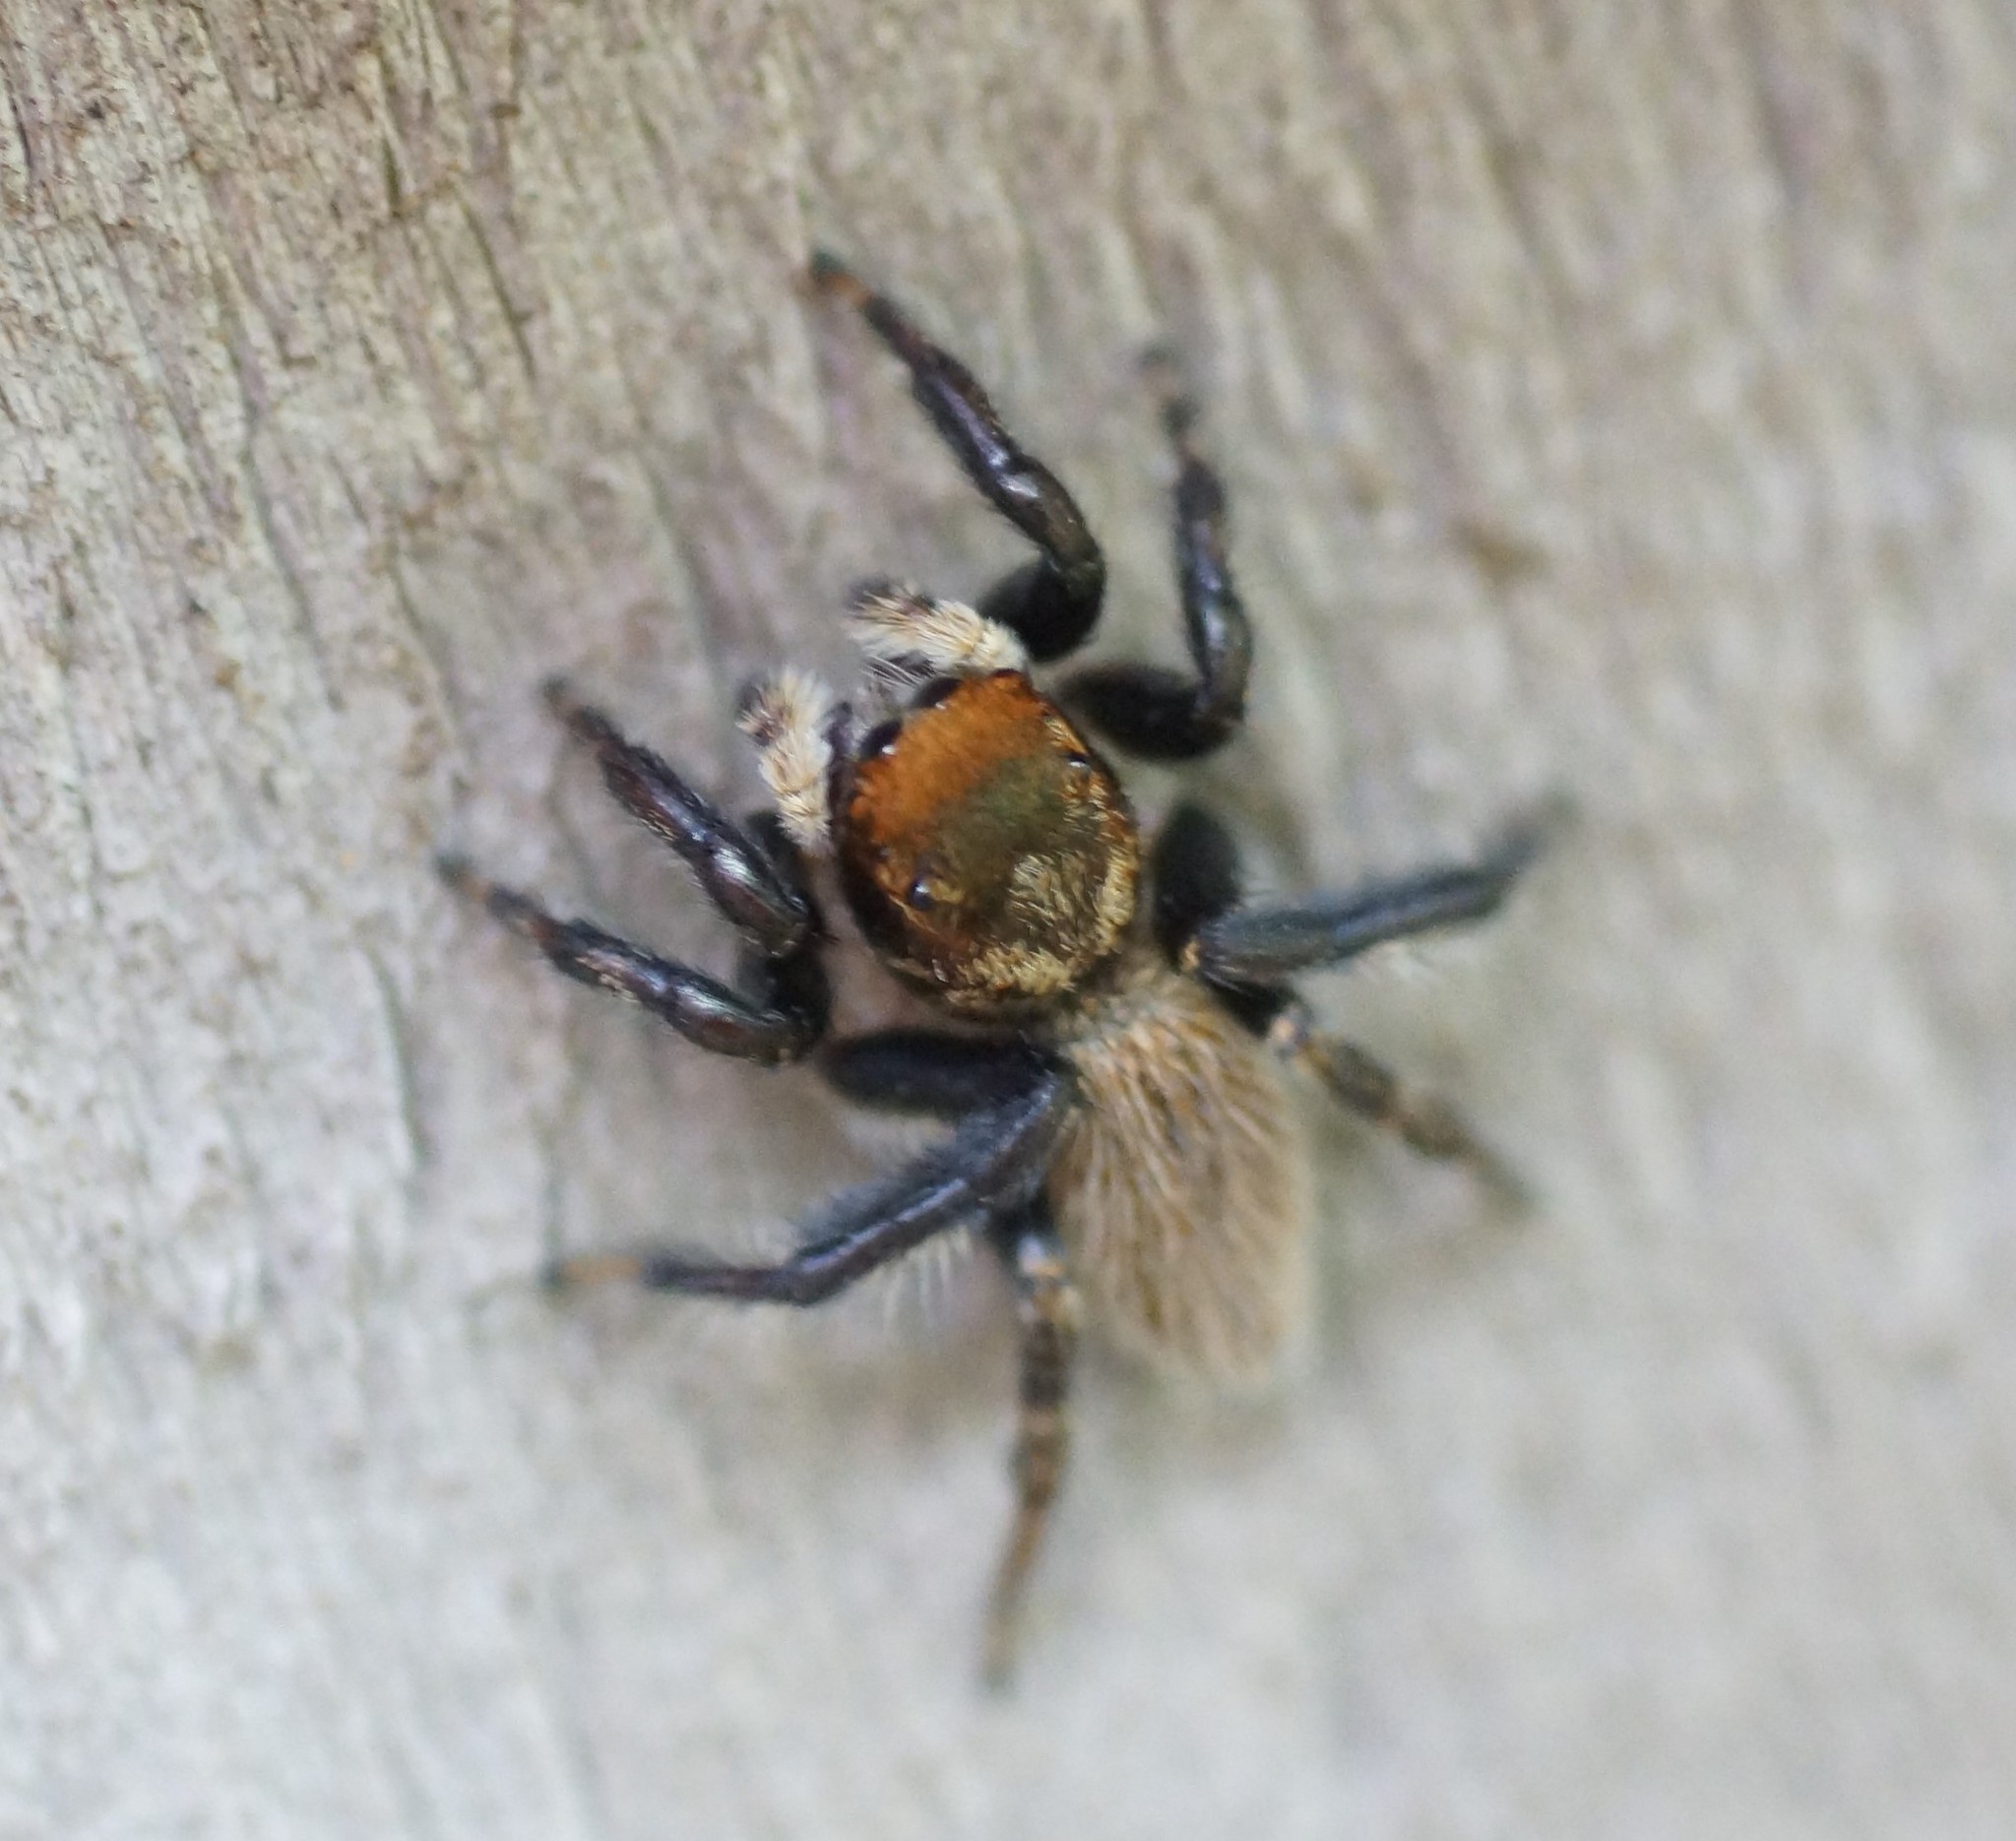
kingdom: Animalia
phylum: Arthropoda
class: Arachnida
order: Araneae
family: Salticidae
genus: Maratus
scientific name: Maratus griseus
